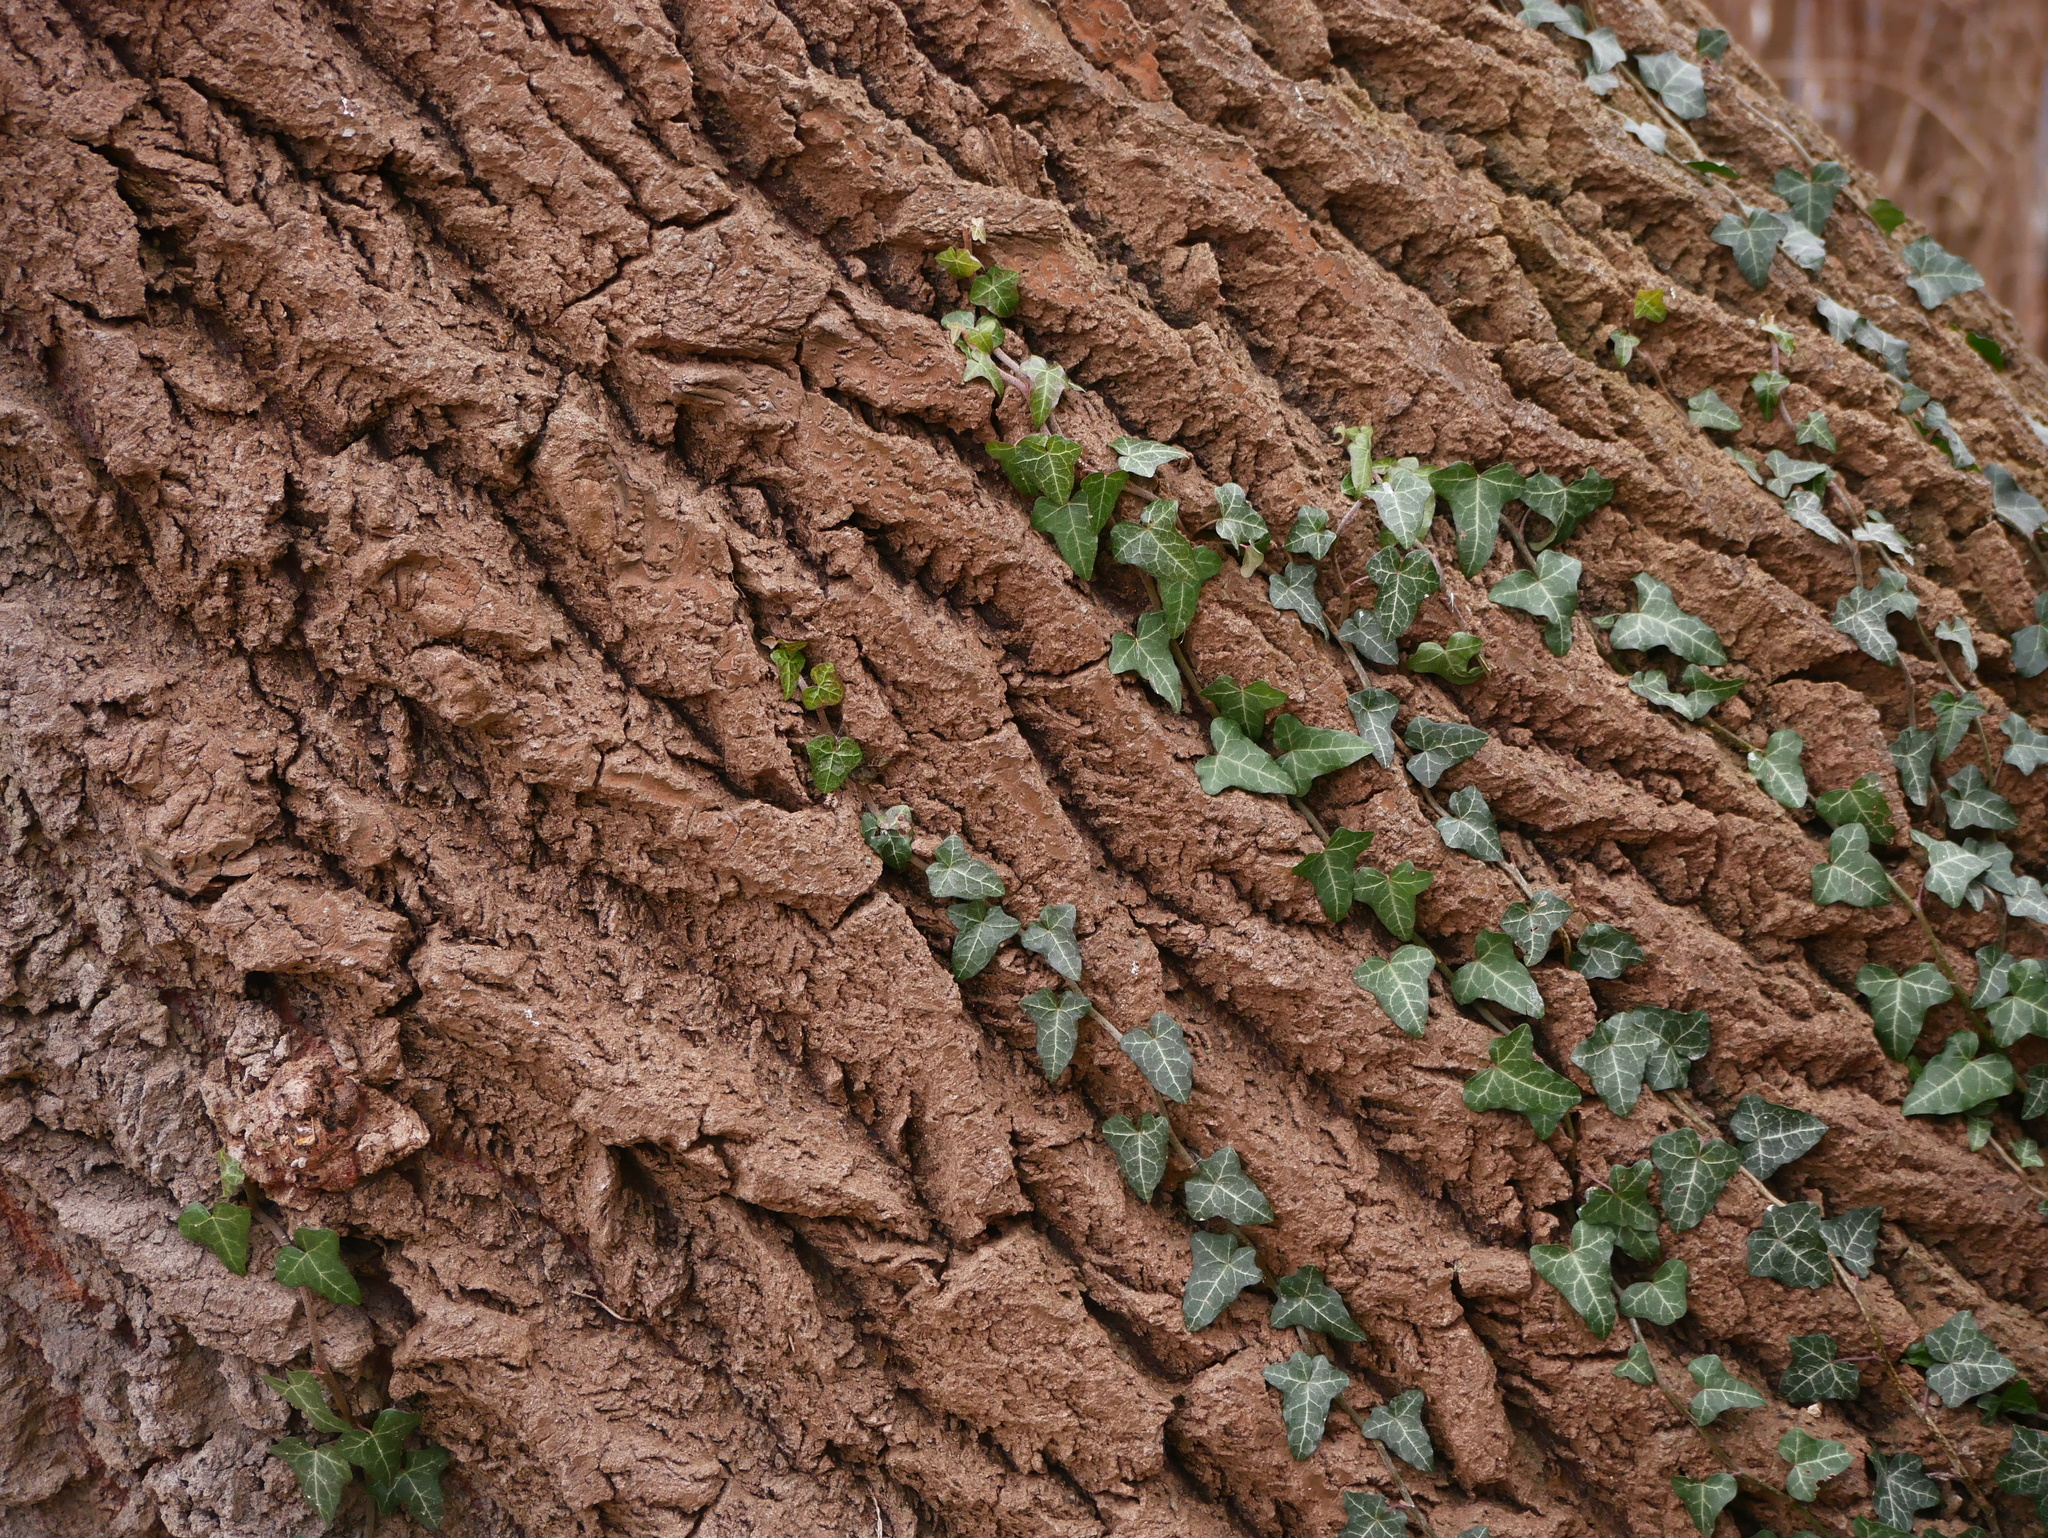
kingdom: Plantae
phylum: Tracheophyta
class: Magnoliopsida
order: Apiales
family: Araliaceae
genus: Hedera
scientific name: Hedera helix
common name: Ivy
